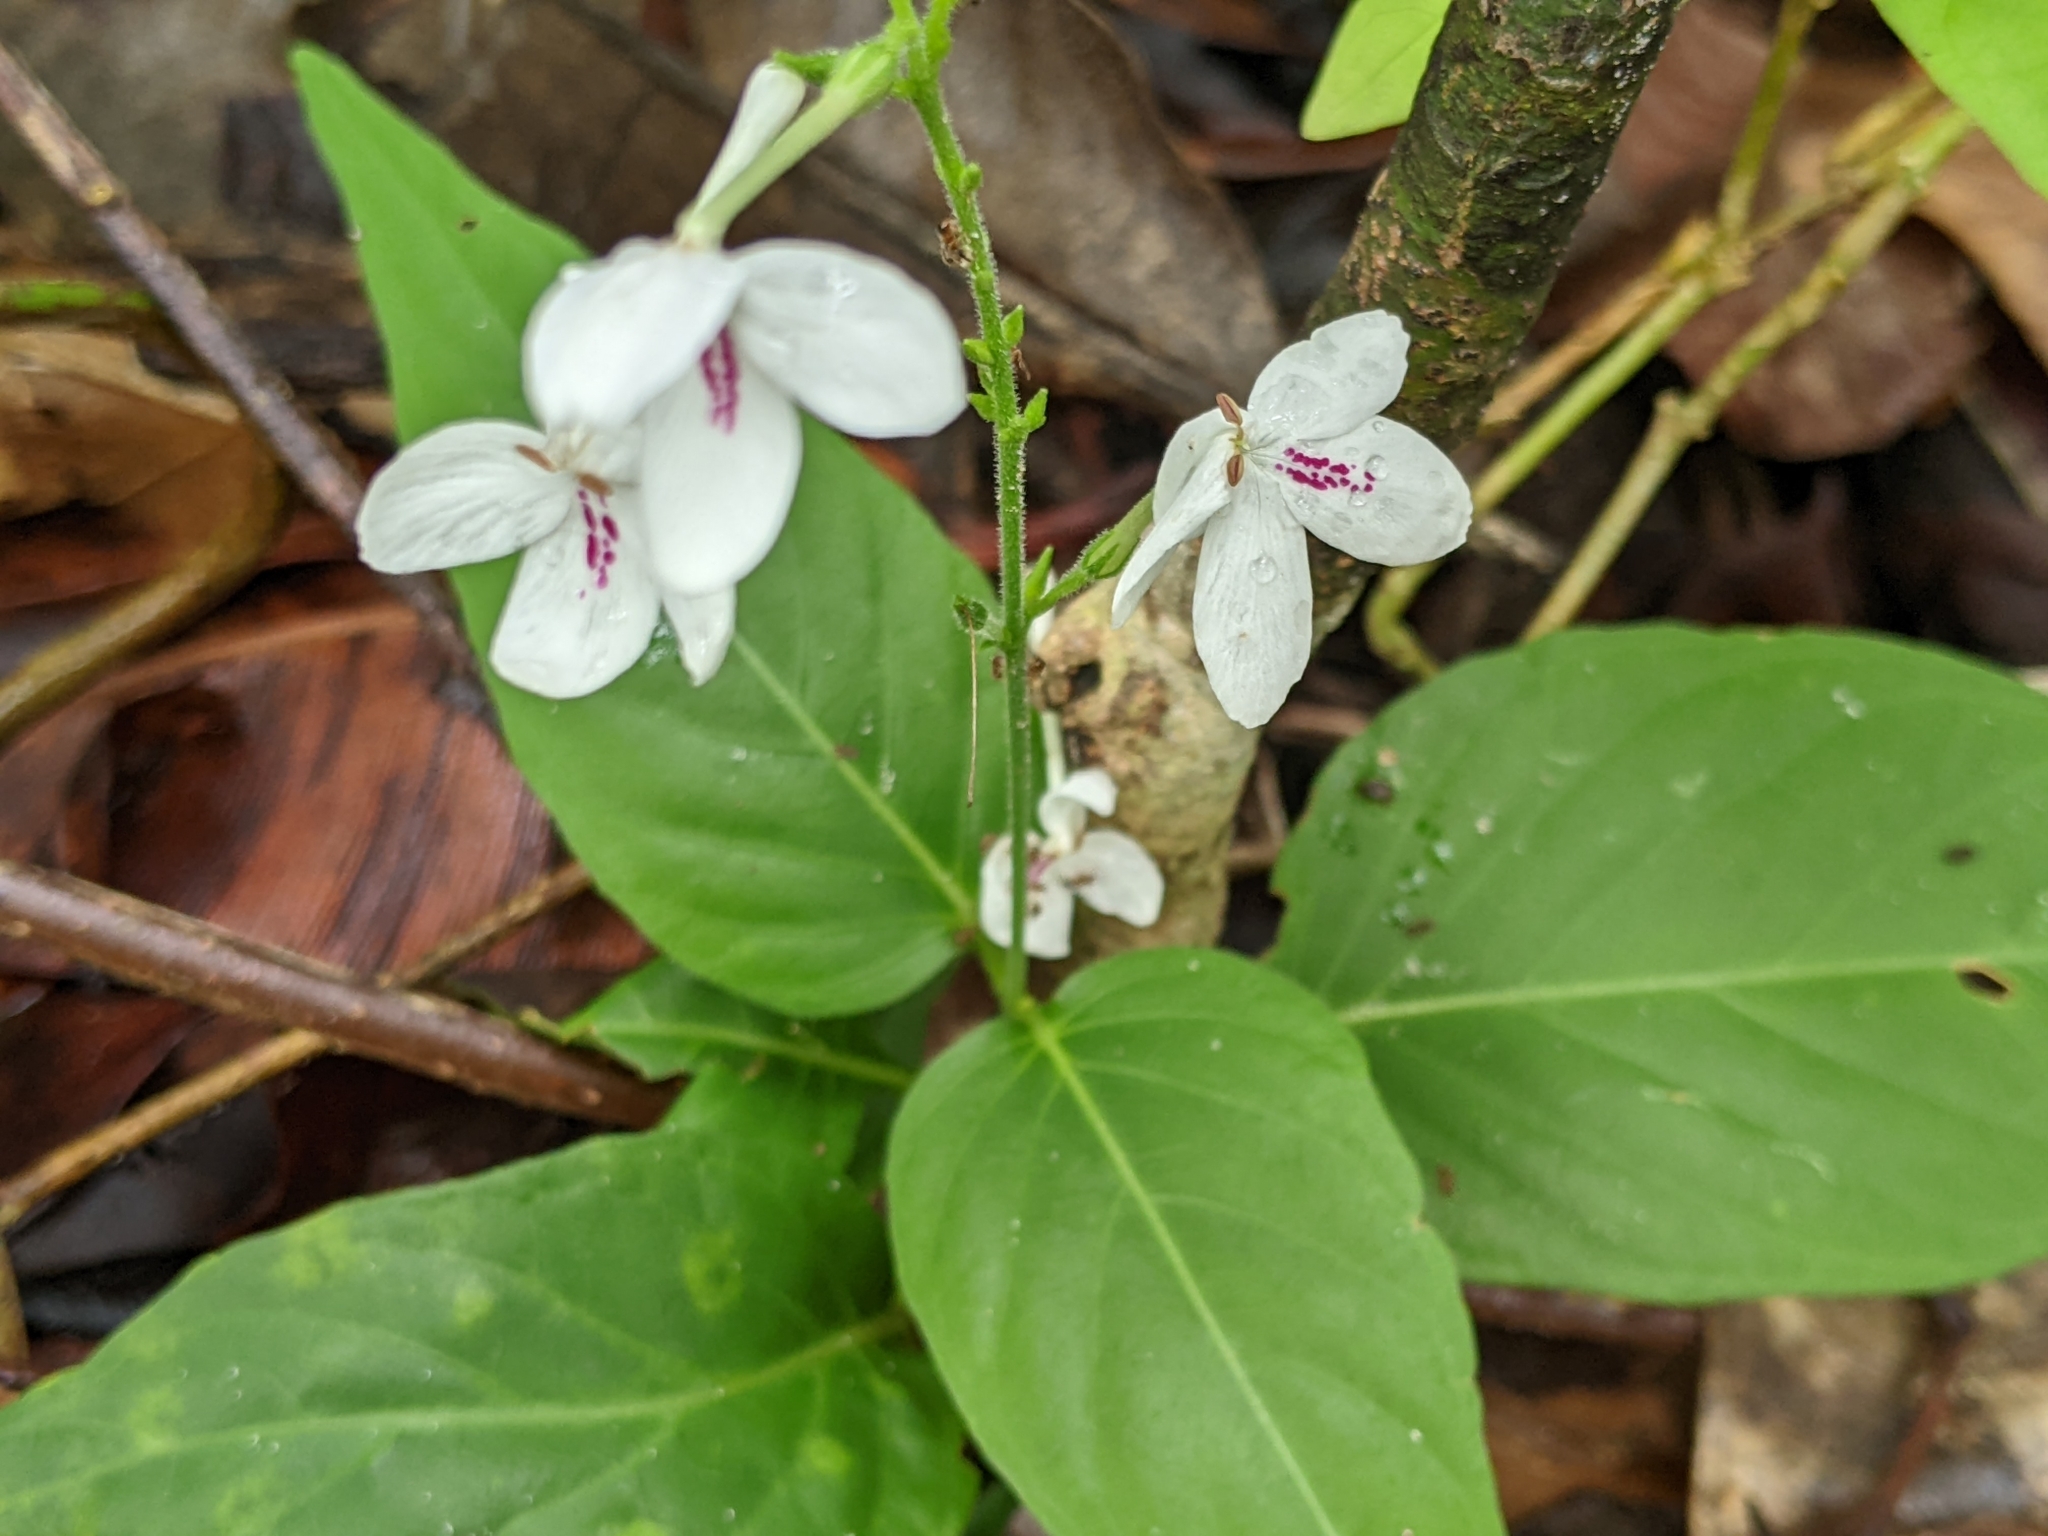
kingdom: Plantae
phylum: Tracheophyta
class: Magnoliopsida
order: Lamiales
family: Acanthaceae
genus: Pseuderanthemum
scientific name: Pseuderanthemum variabile
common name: Night and afternoon
